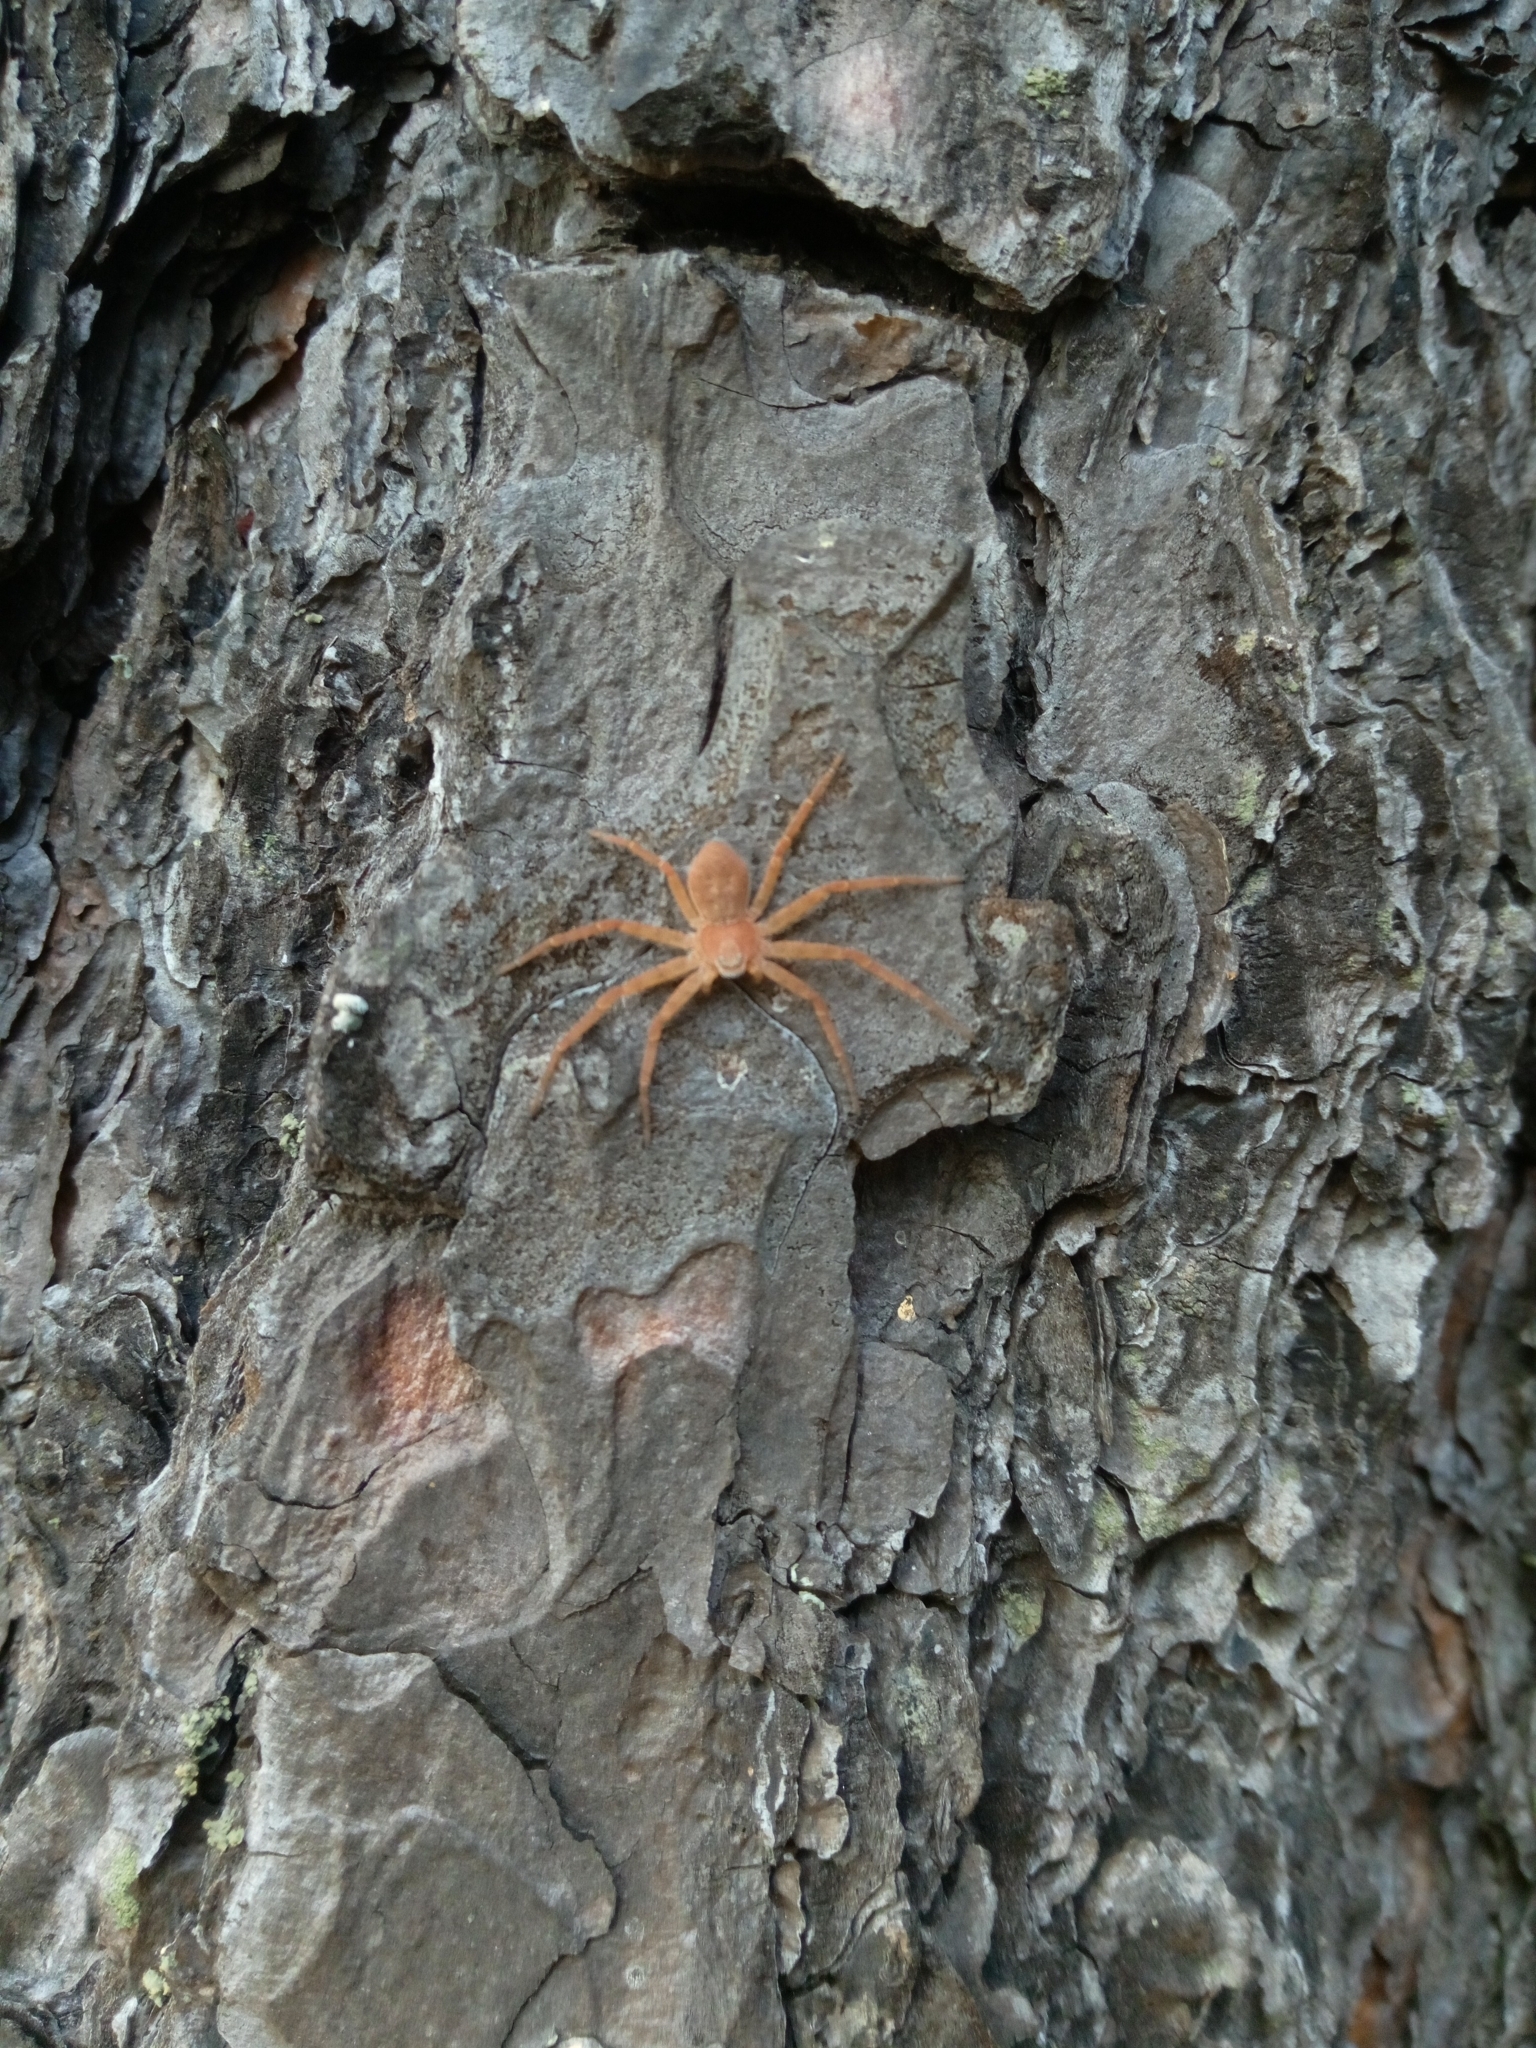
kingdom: Animalia
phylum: Arthropoda
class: Arachnida
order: Araneae
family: Philodromidae
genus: Philodromus
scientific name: Philodromus fuscomarginatus
